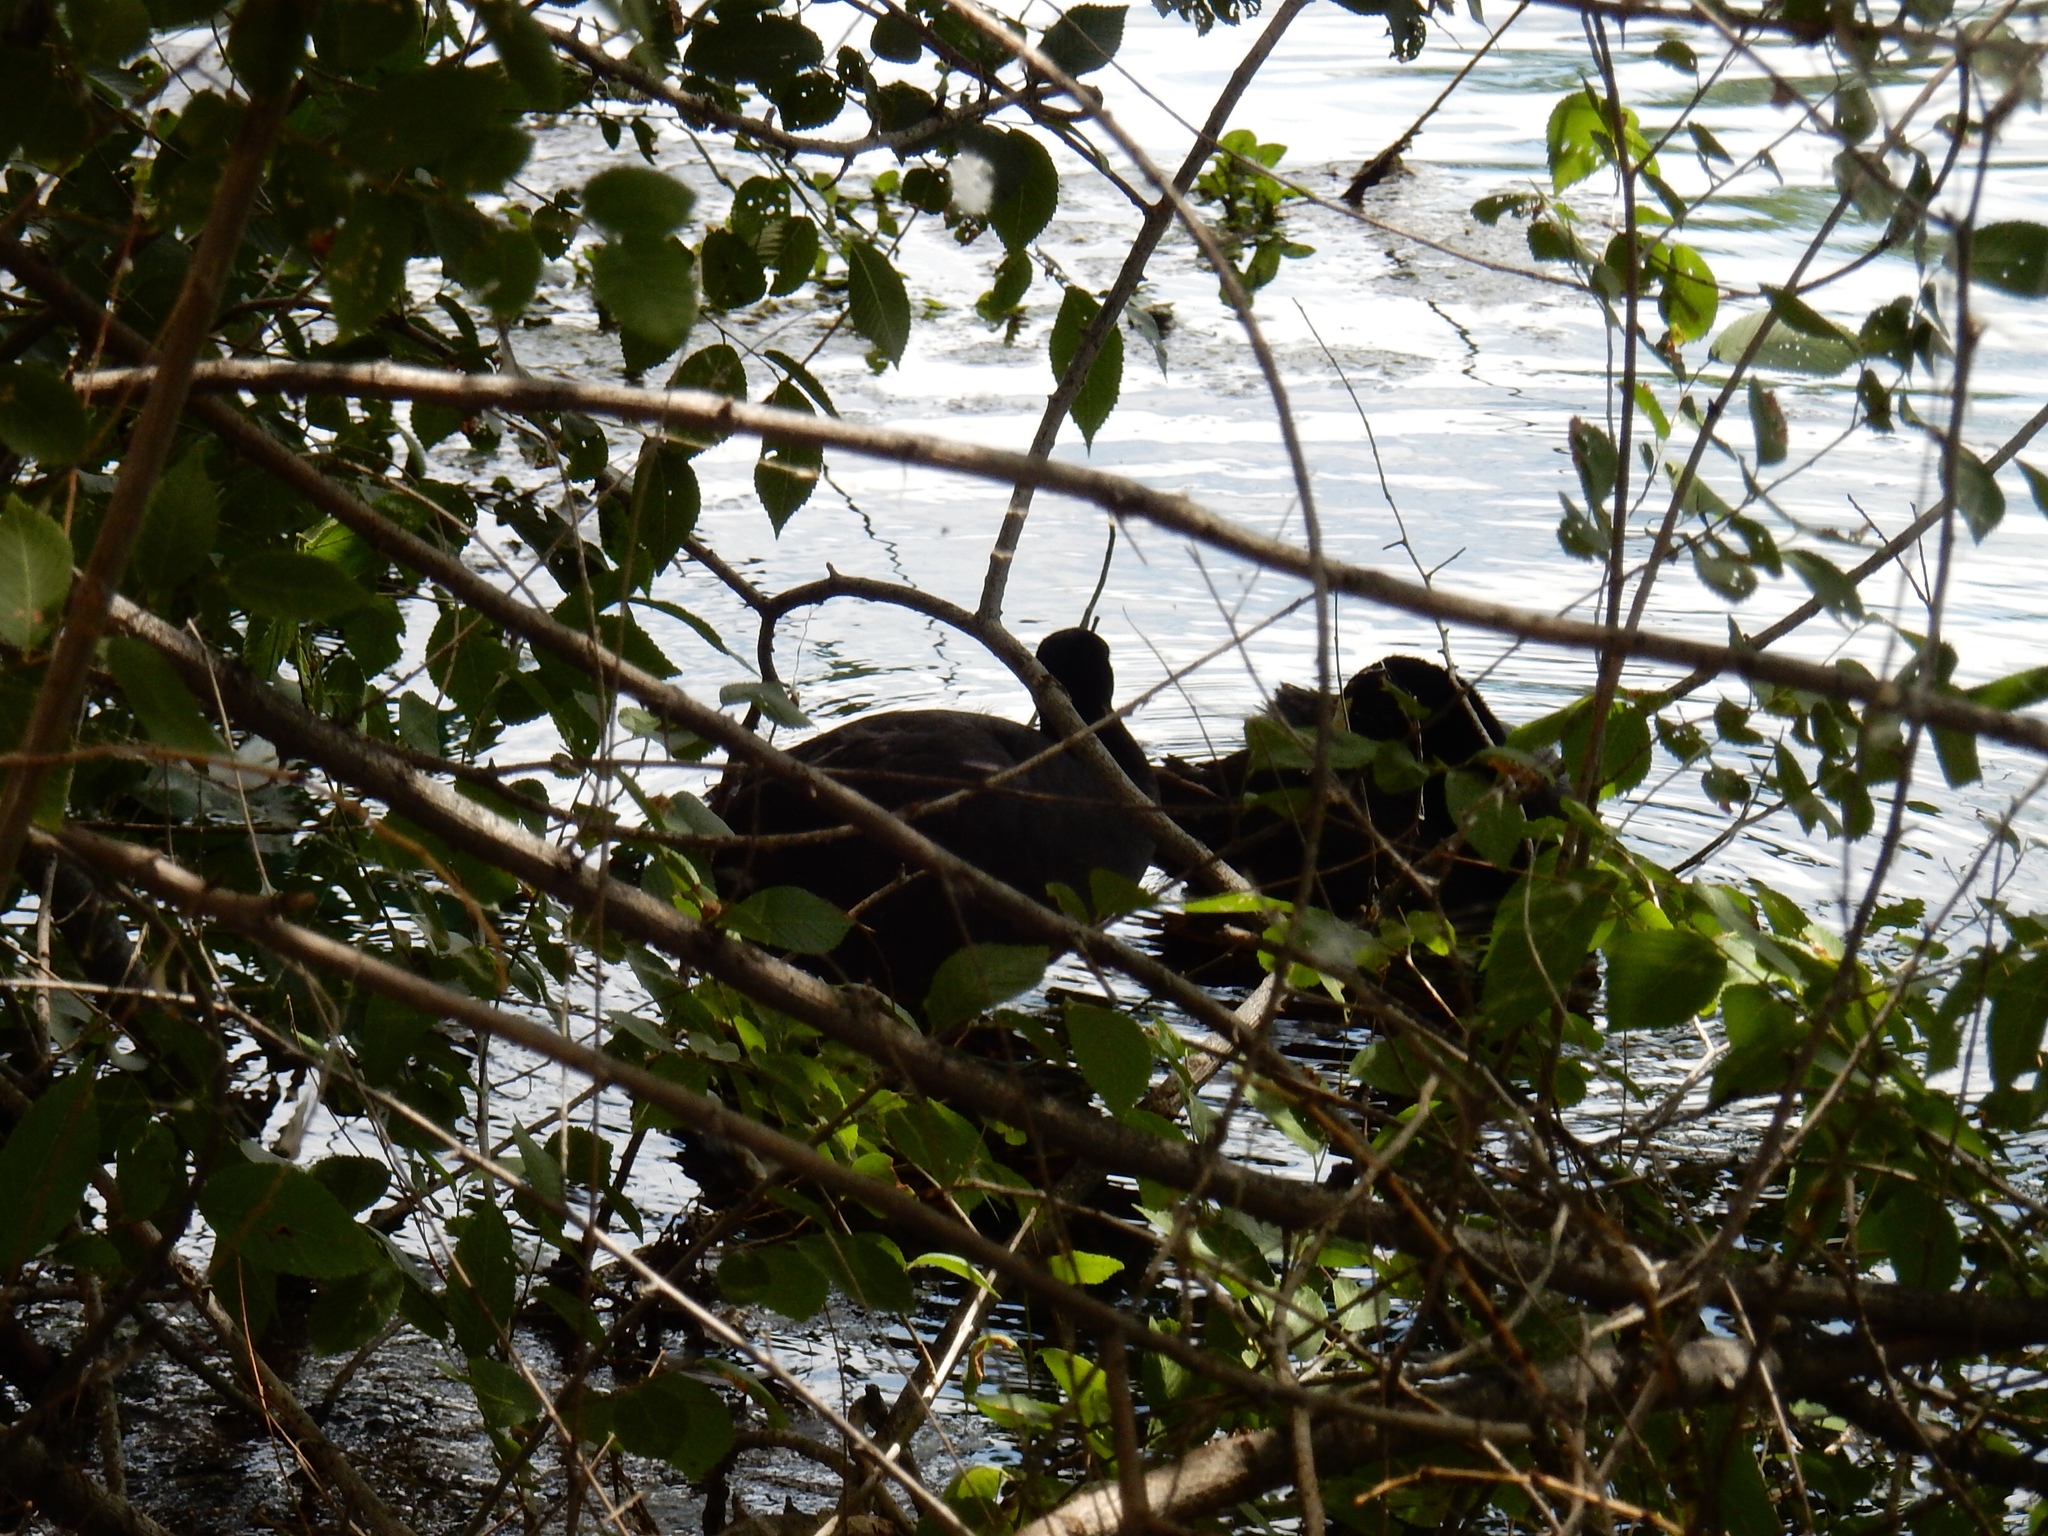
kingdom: Animalia
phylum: Chordata
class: Aves
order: Gruiformes
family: Rallidae
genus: Fulica
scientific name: Fulica americana
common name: American coot
